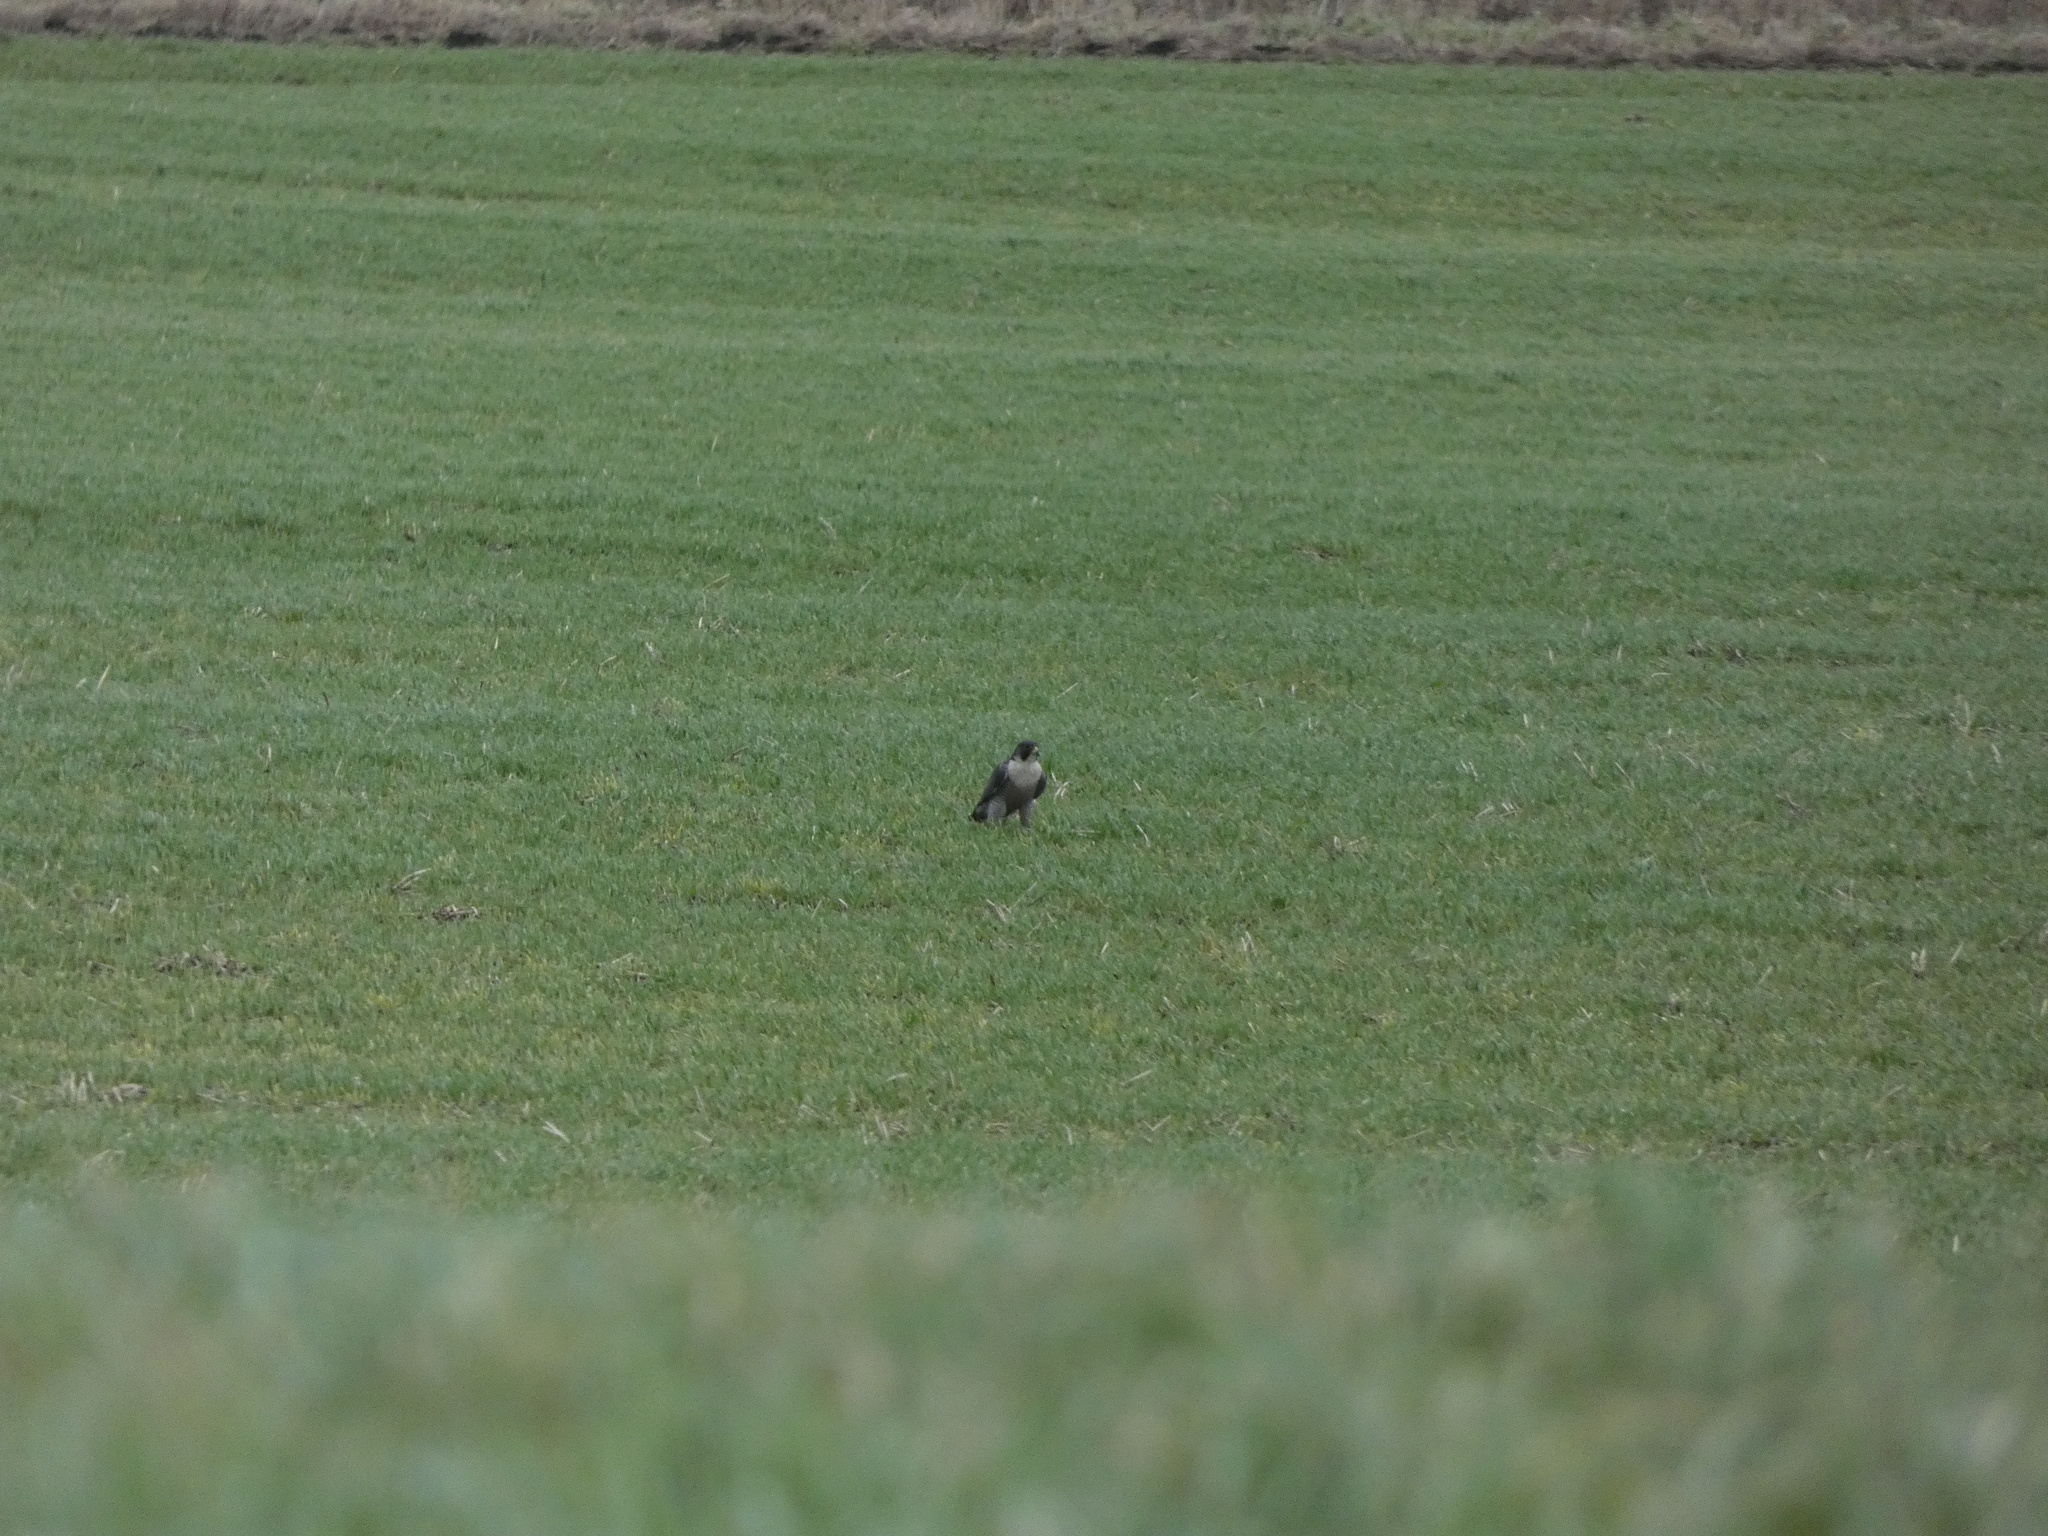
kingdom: Animalia
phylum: Chordata
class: Aves
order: Falconiformes
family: Falconidae
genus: Falco
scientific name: Falco peregrinus
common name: Peregrine falcon
